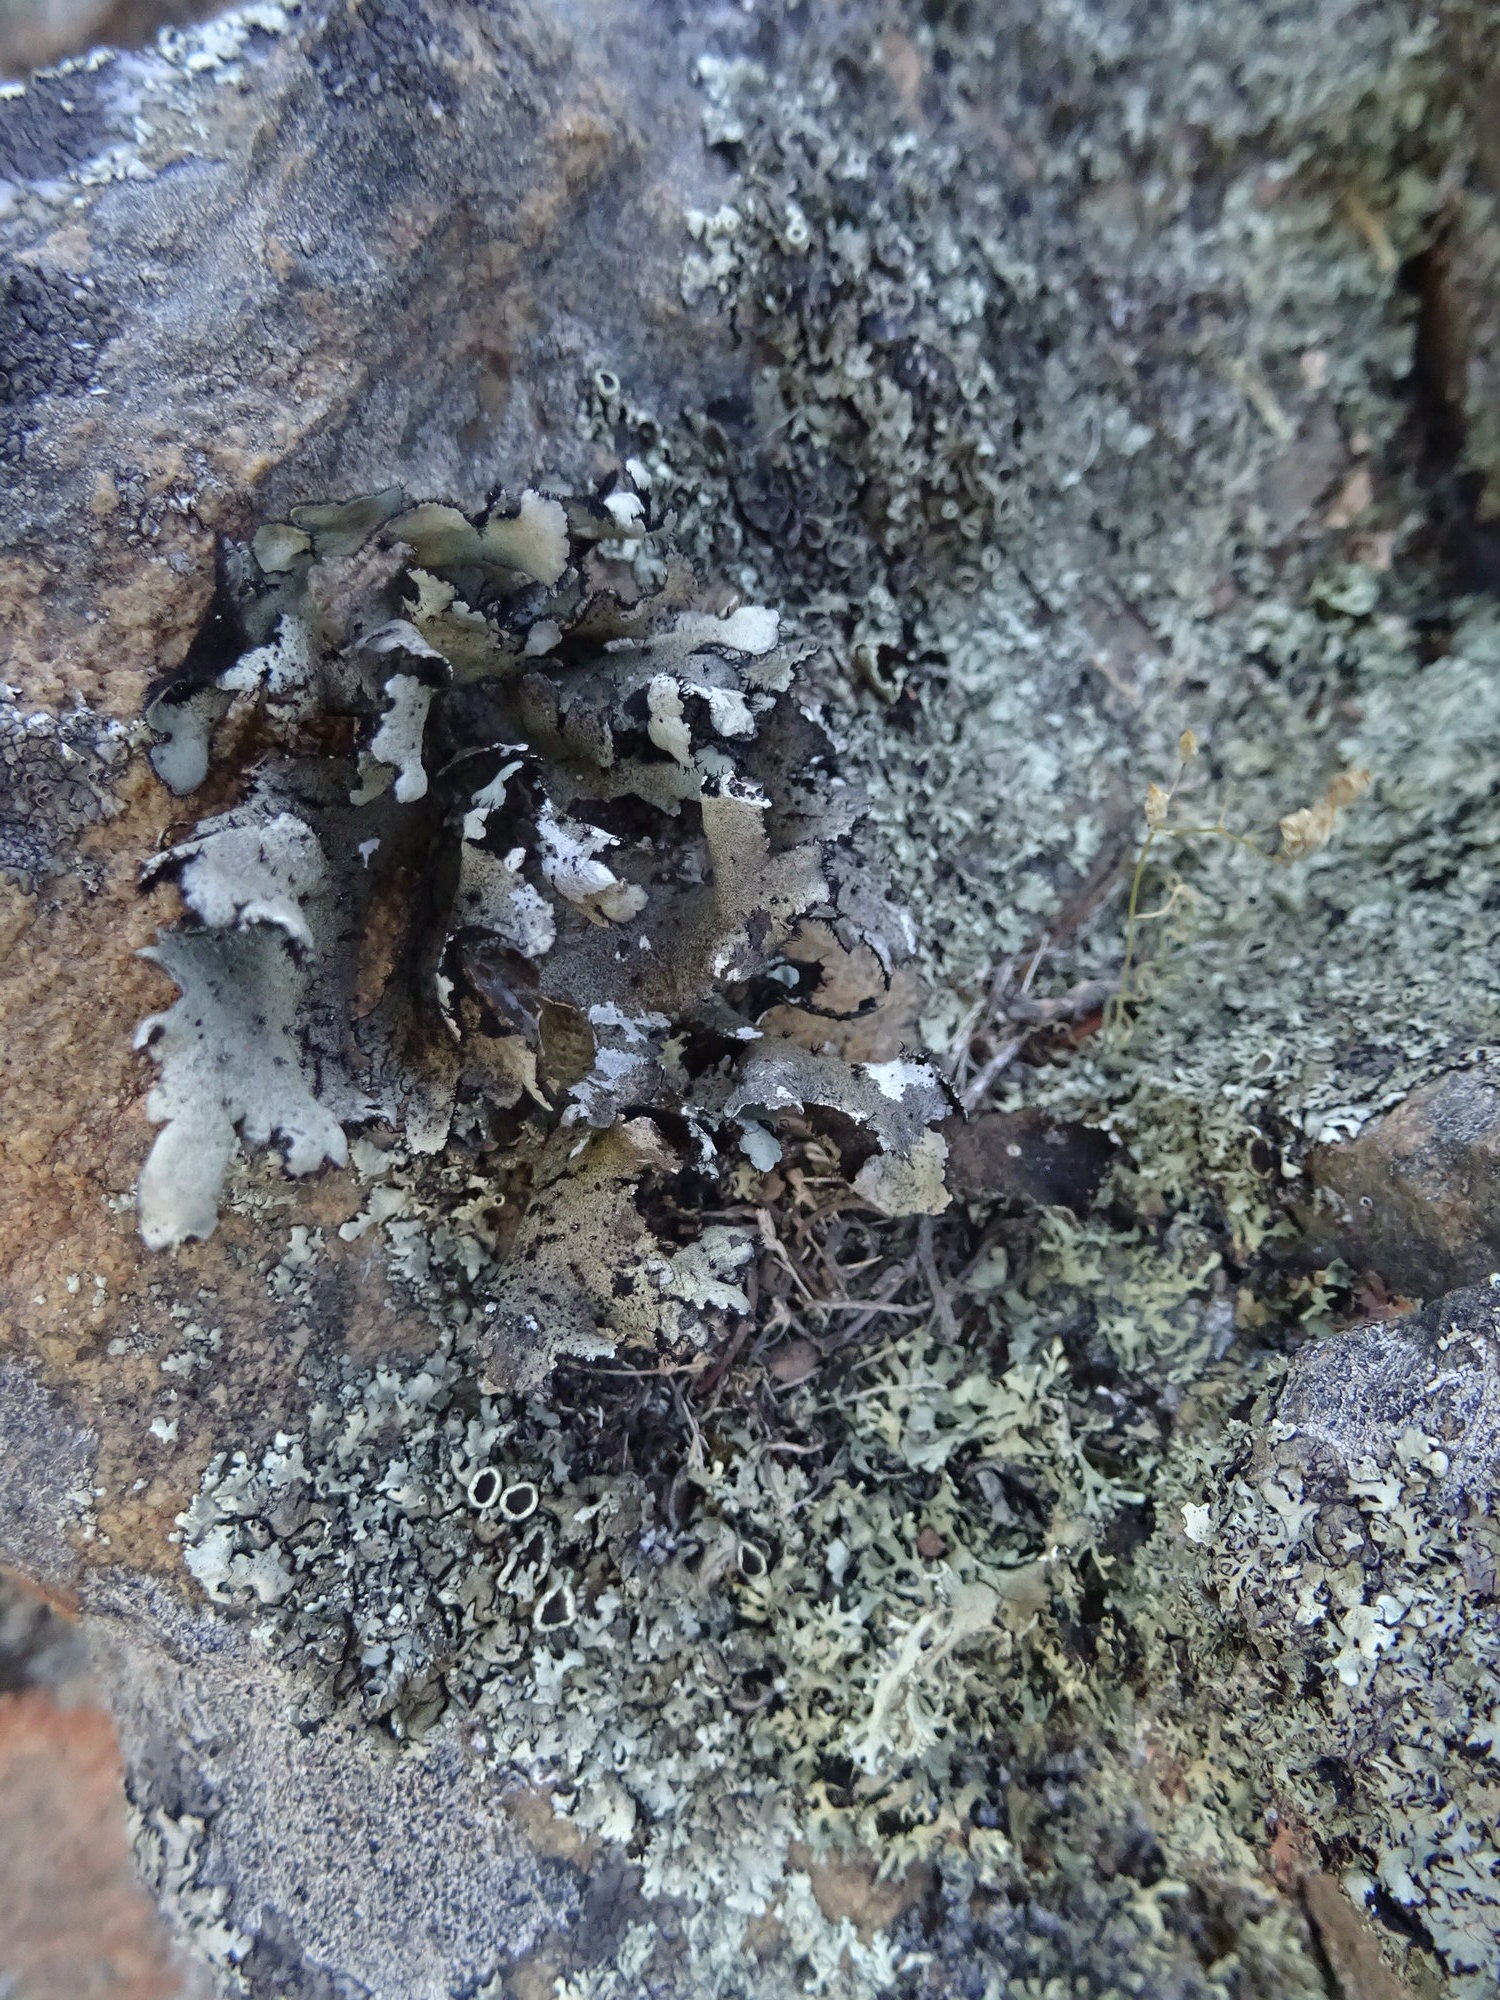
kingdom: Fungi
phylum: Ascomycota
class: Lecanoromycetes
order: Lecanorales
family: Parmeliaceae
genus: Xanthoparmelia
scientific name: Xanthoparmelia hottentotta
